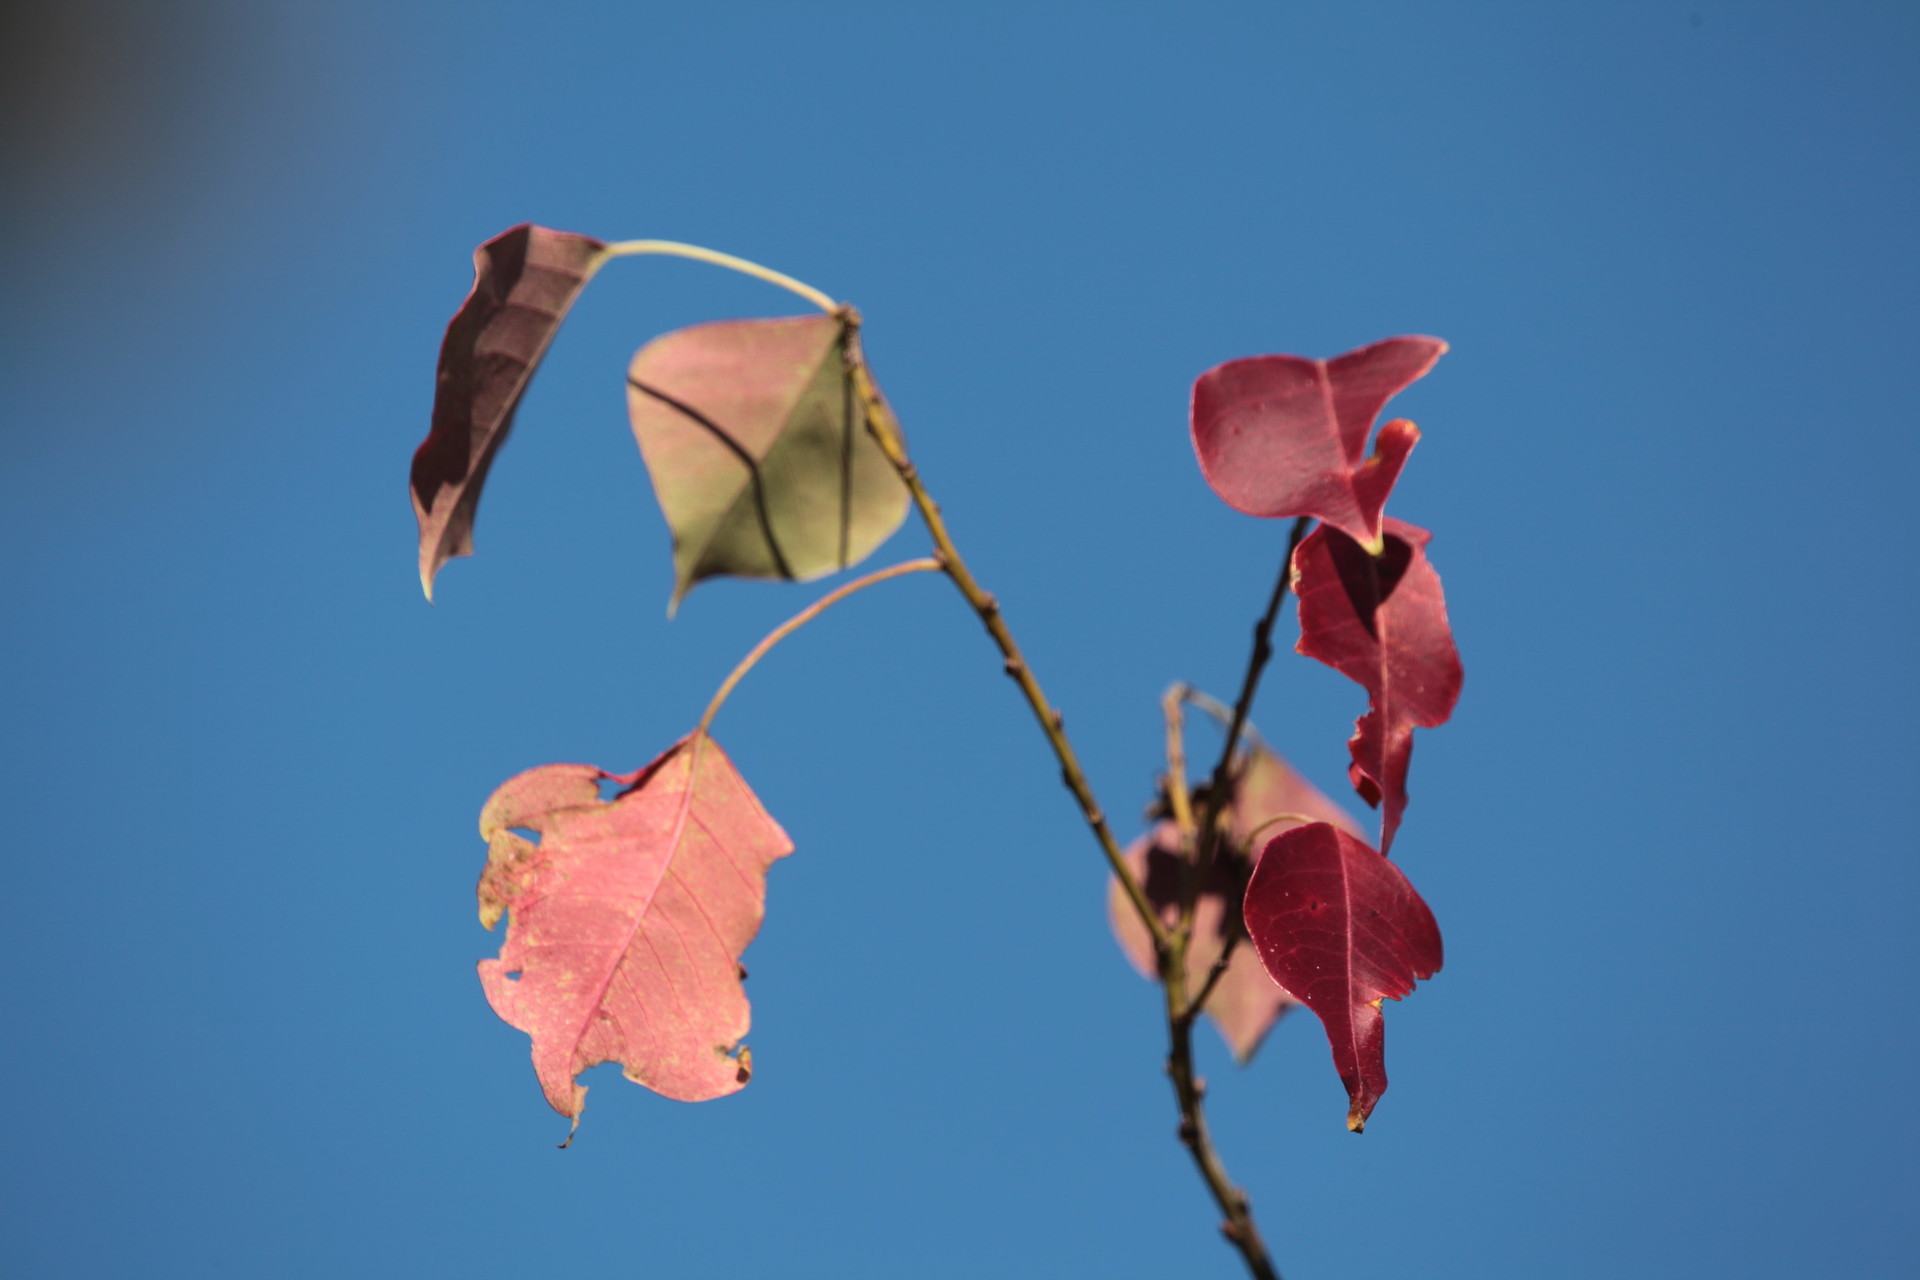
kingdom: Plantae
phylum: Tracheophyta
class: Magnoliopsida
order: Malpighiales
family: Euphorbiaceae
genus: Triadica
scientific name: Triadica sebifera
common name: Chinese tallow
